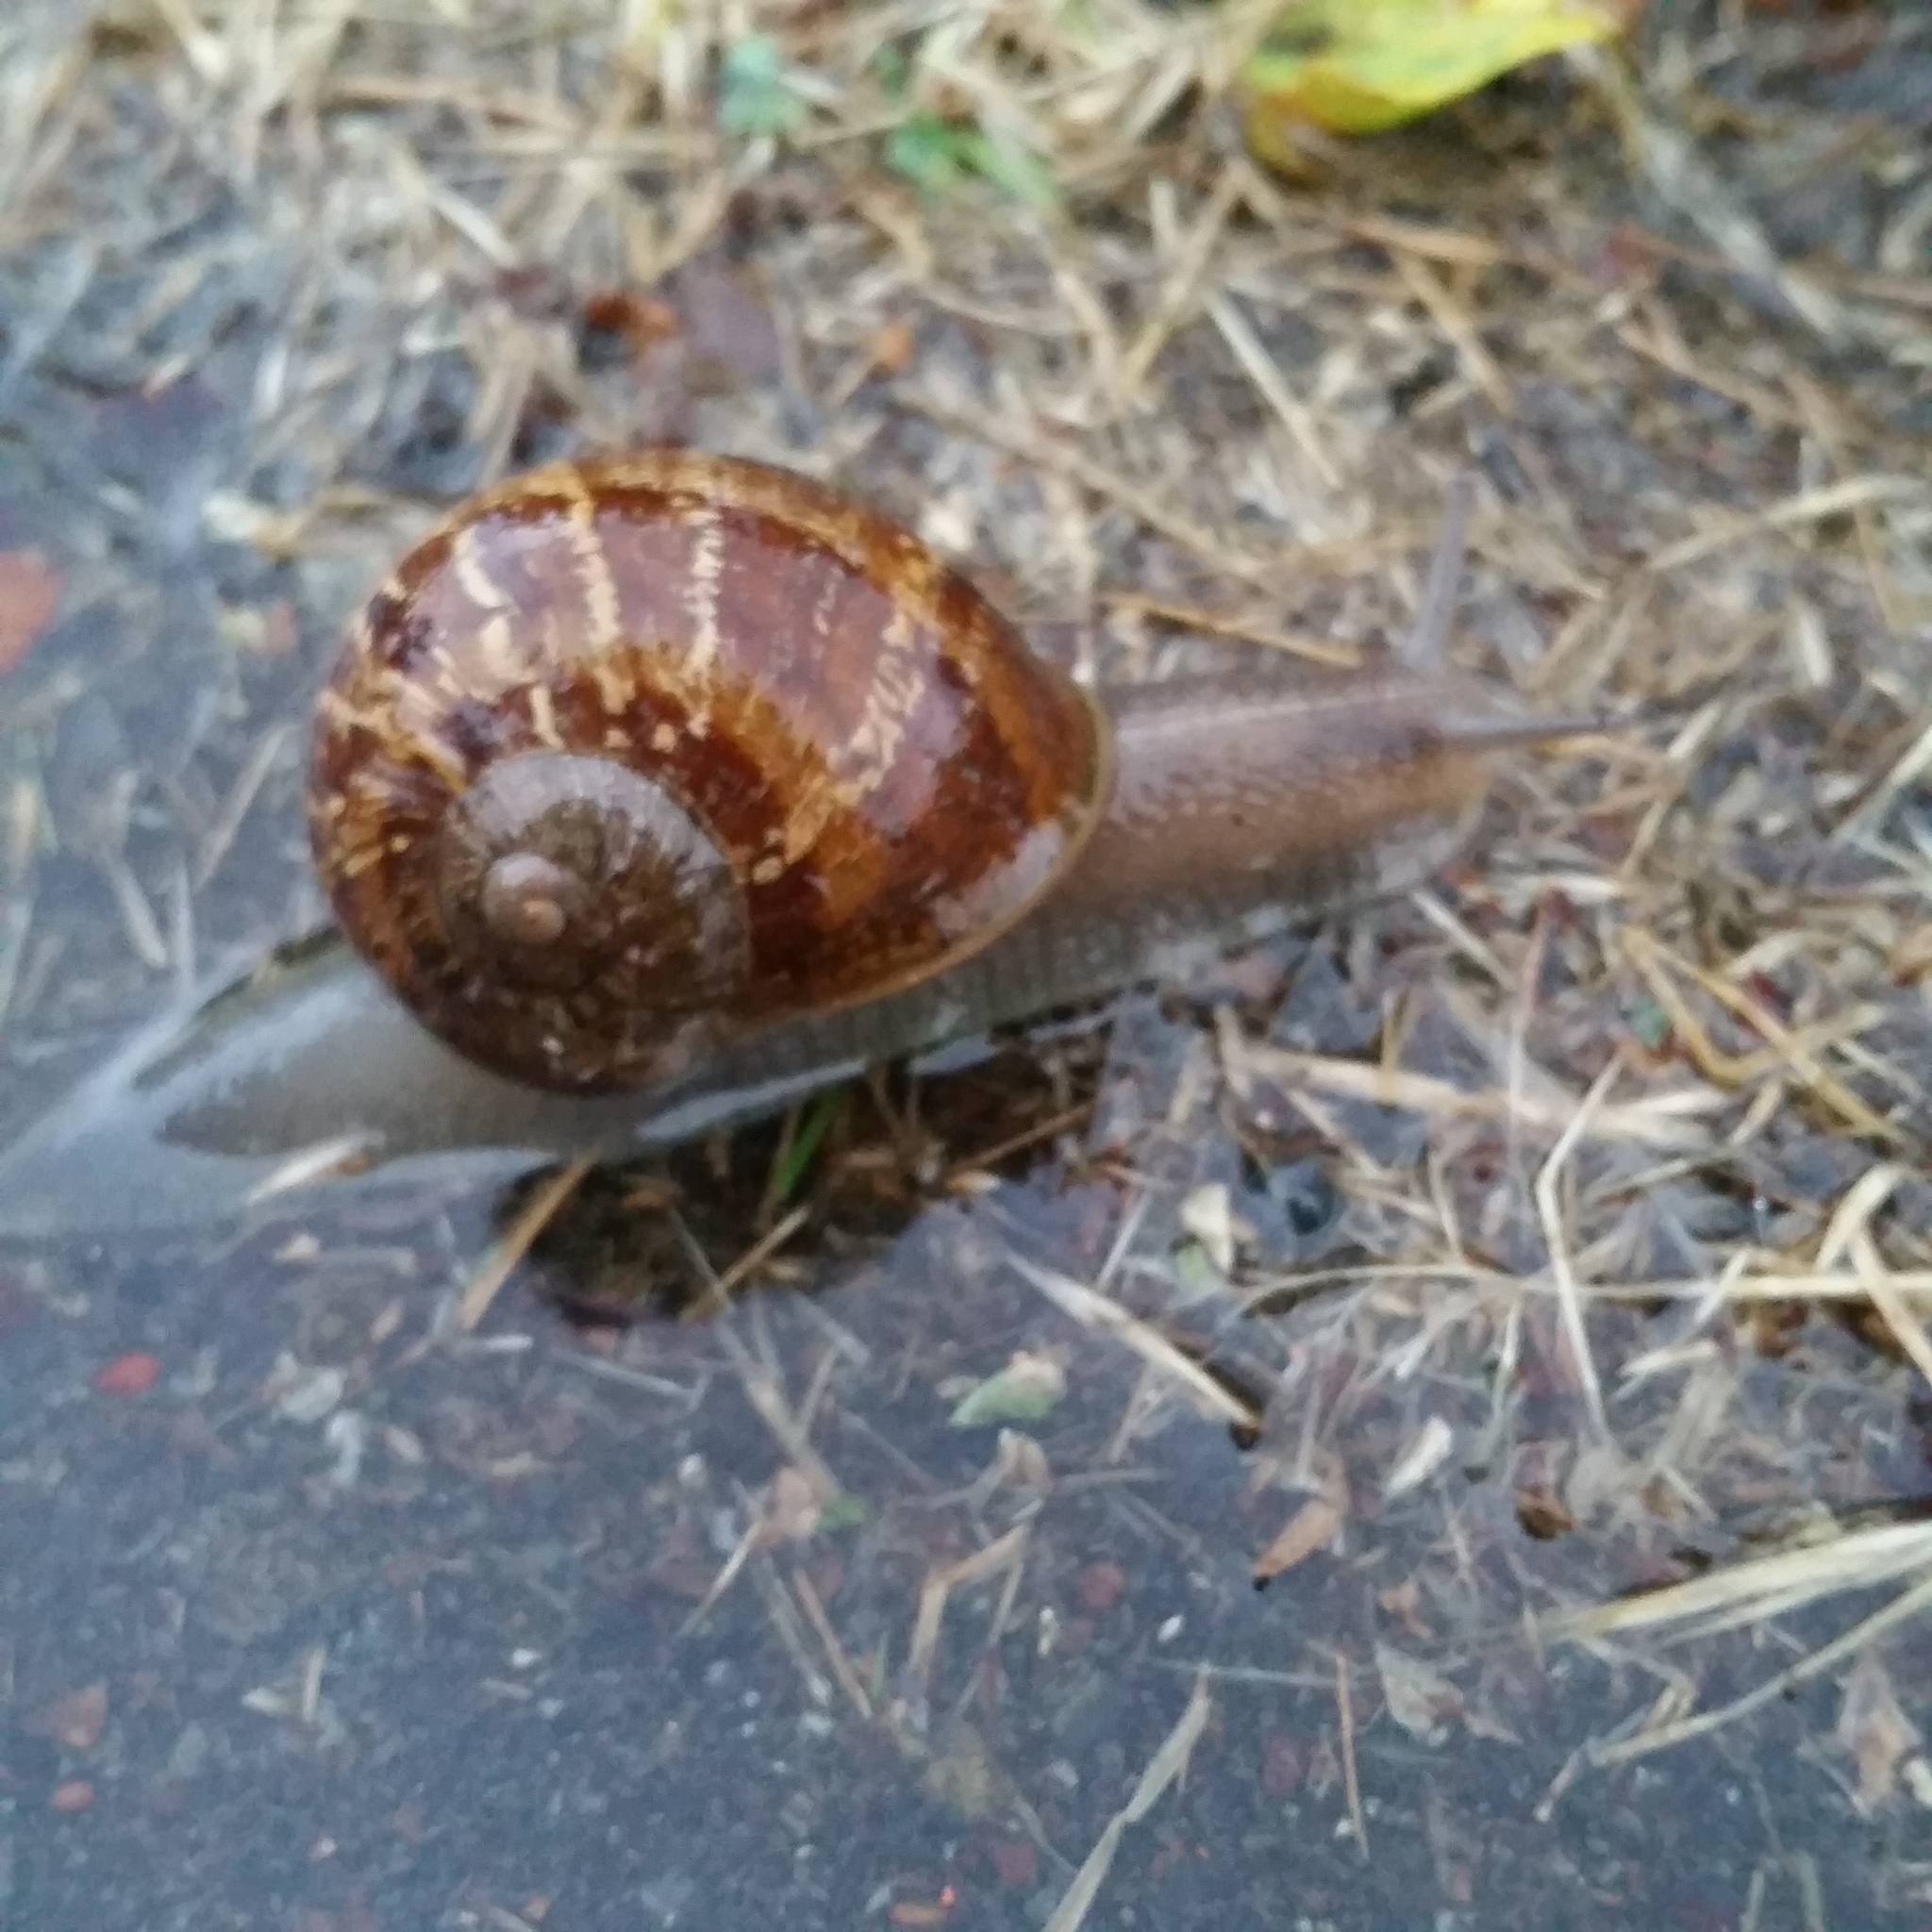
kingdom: Animalia
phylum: Mollusca
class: Gastropoda
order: Stylommatophora
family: Helicidae
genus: Cornu
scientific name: Cornu aspersum
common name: Brown garden snail
